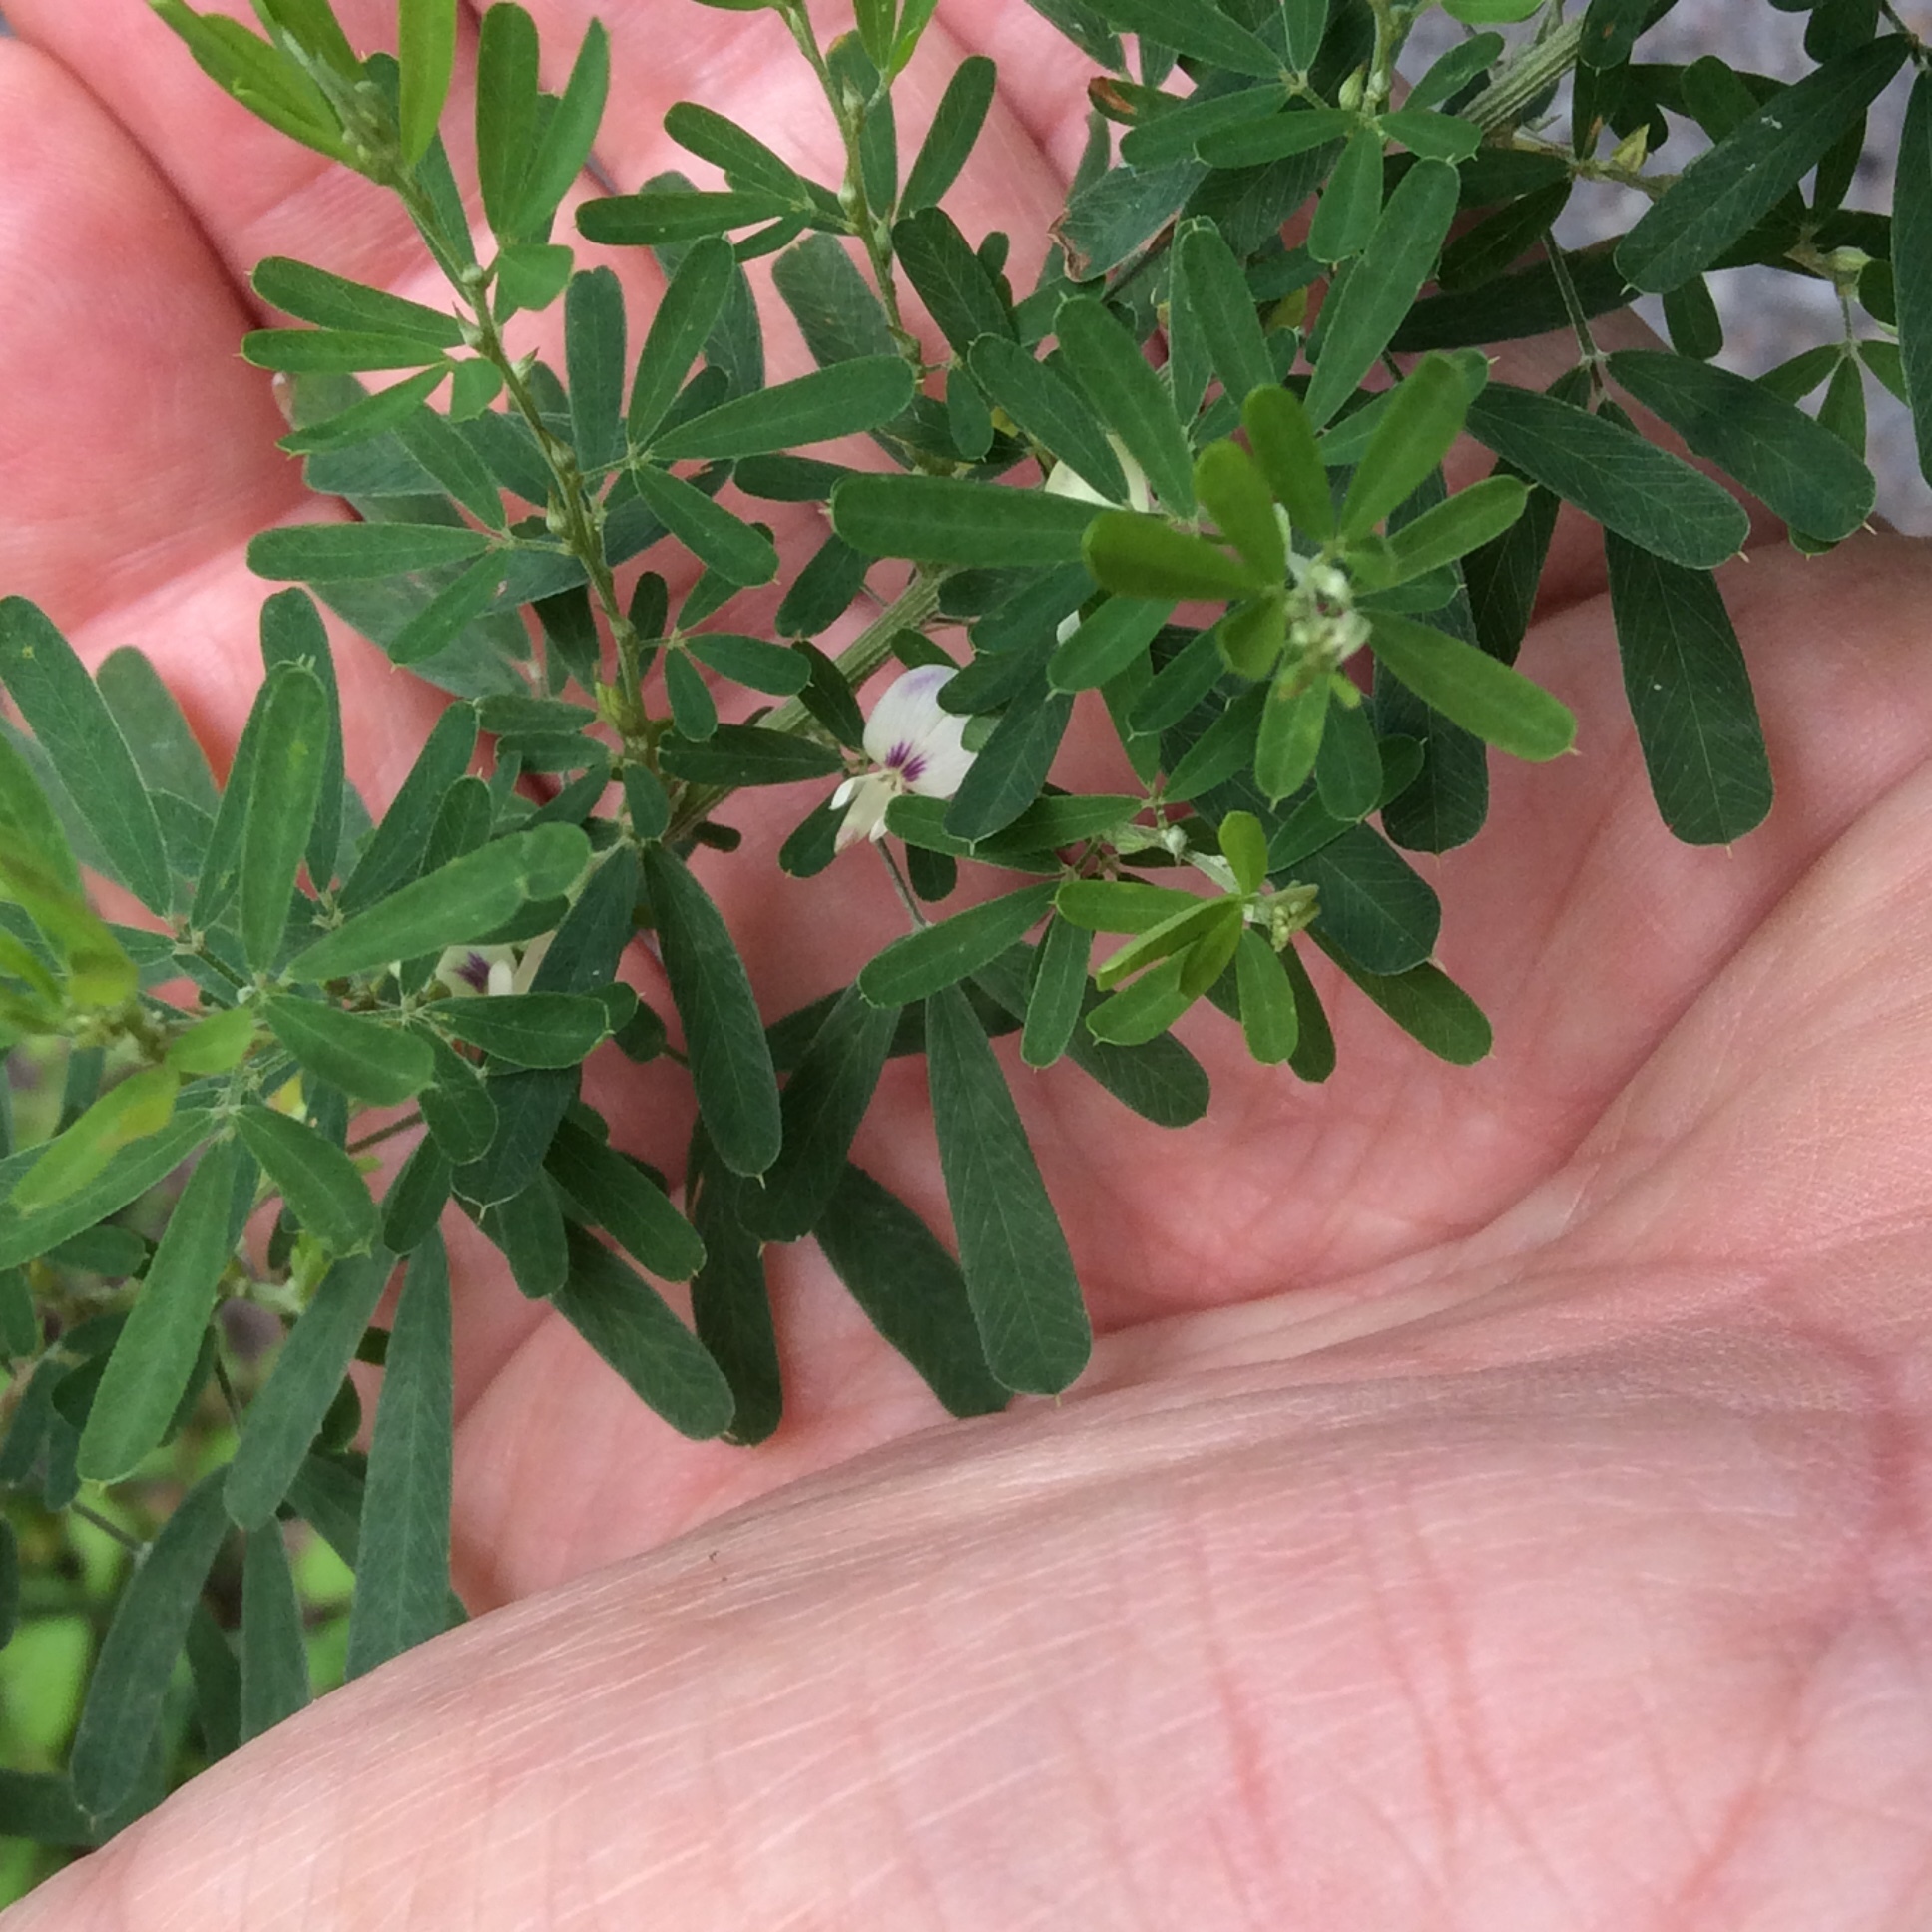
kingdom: Plantae
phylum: Tracheophyta
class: Magnoliopsida
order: Fabales
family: Fabaceae
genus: Lespedeza
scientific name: Lespedeza cuneata
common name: Chinese bush-clover
